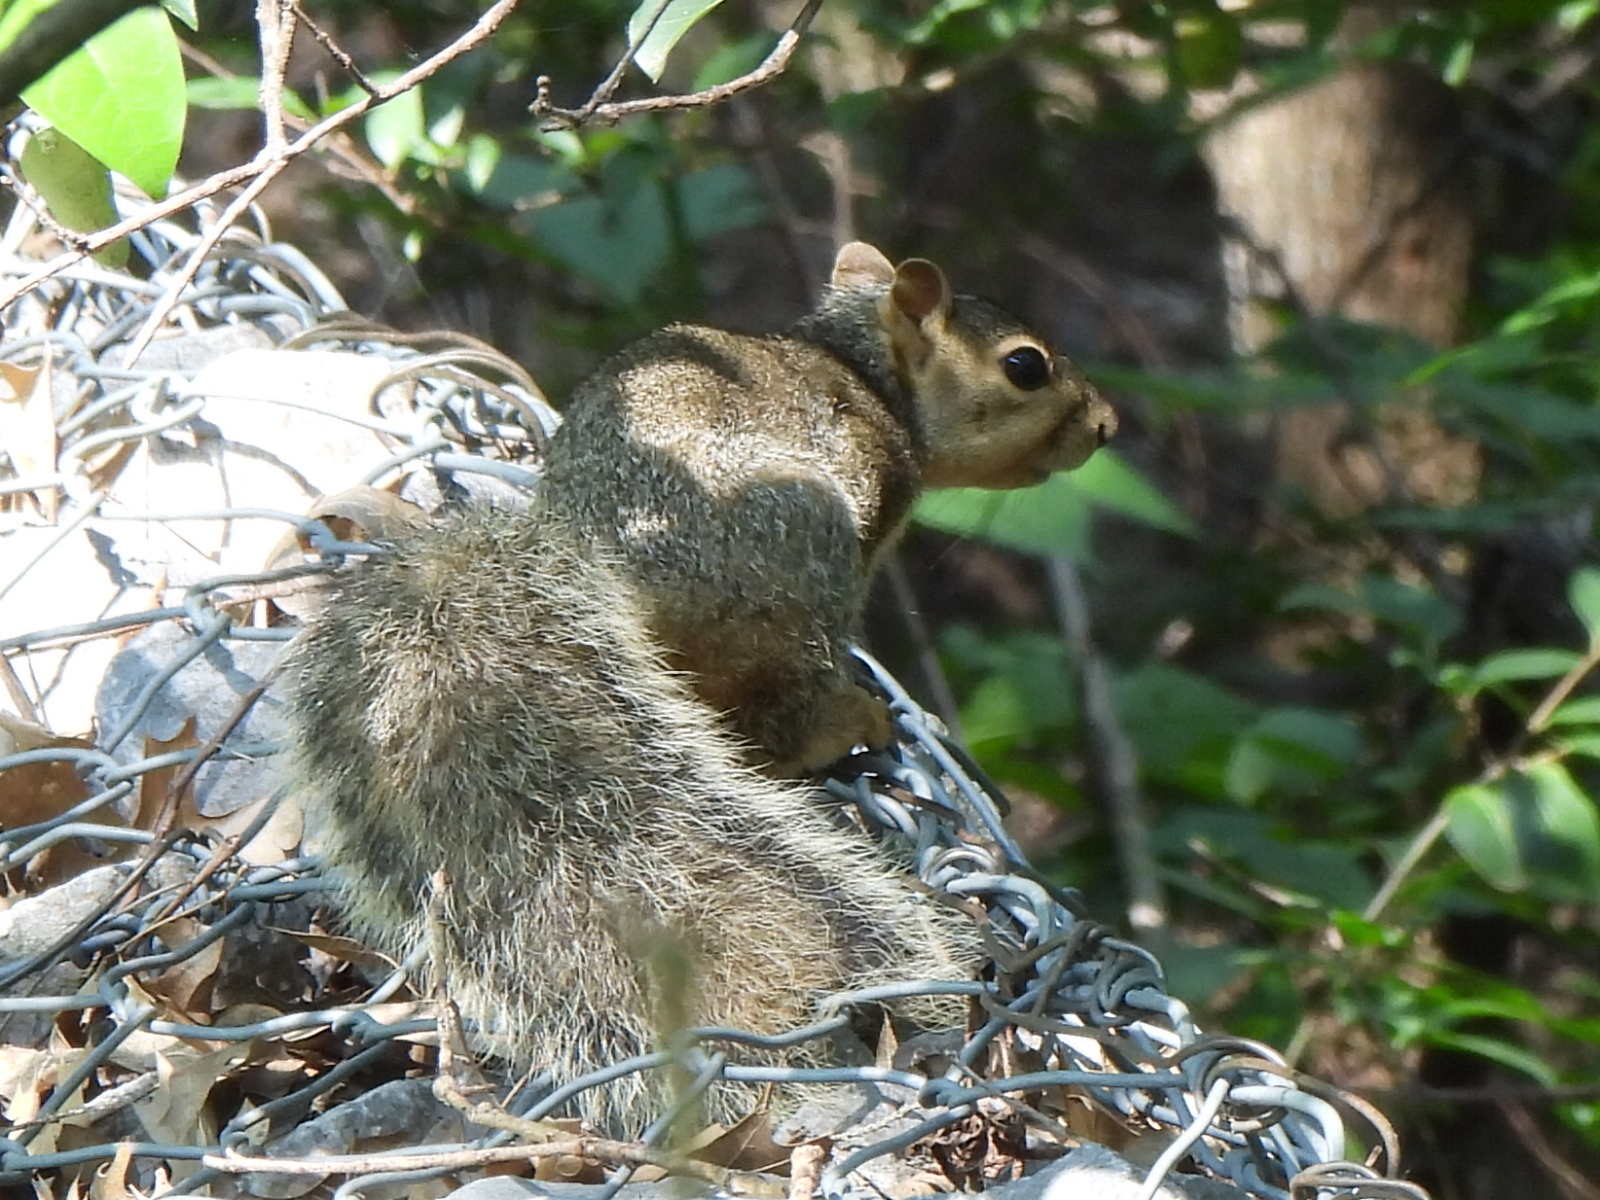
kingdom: Animalia
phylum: Chordata
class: Mammalia
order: Rodentia
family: Sciuridae
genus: Sciurus
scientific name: Sciurus niger
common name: Fox squirrel
